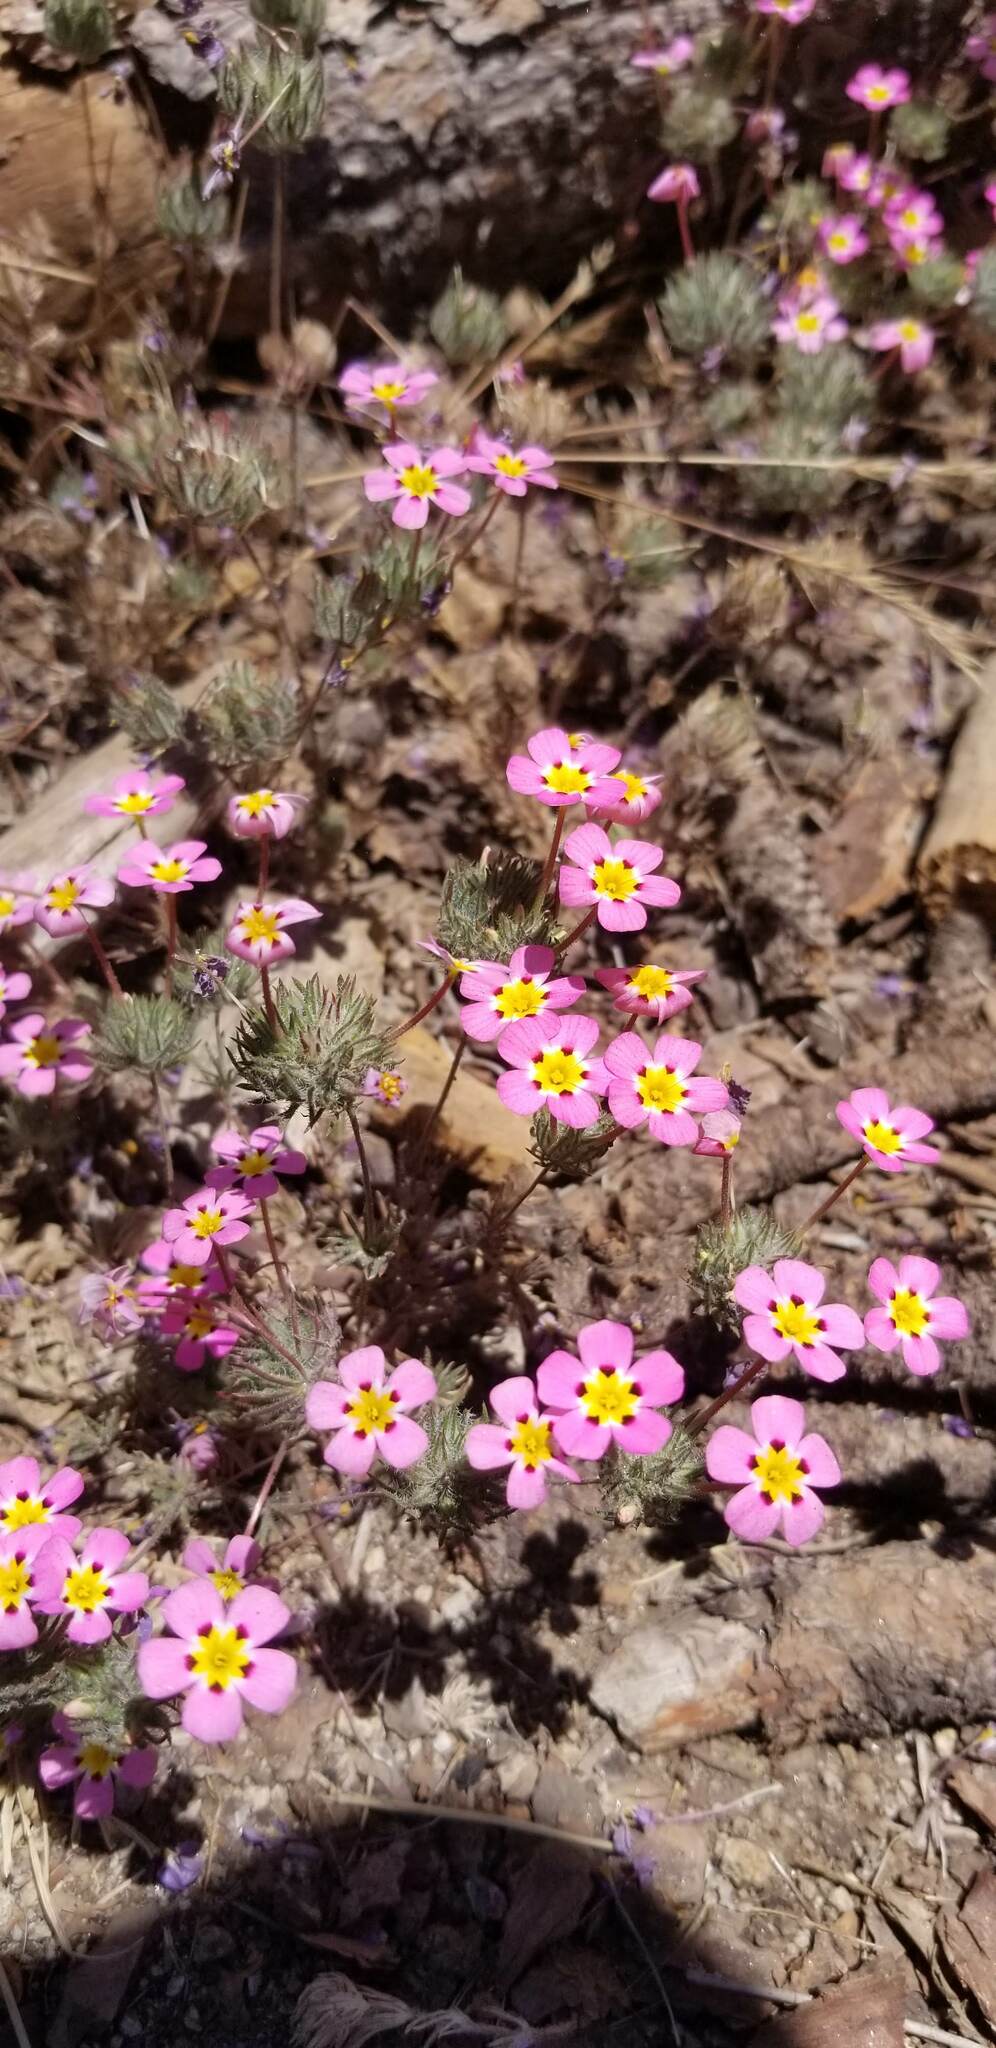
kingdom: Plantae
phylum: Tracheophyta
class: Magnoliopsida
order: Ericales
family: Polemoniaceae
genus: Leptosiphon
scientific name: Leptosiphon ciliatus
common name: Whiskerbrush
